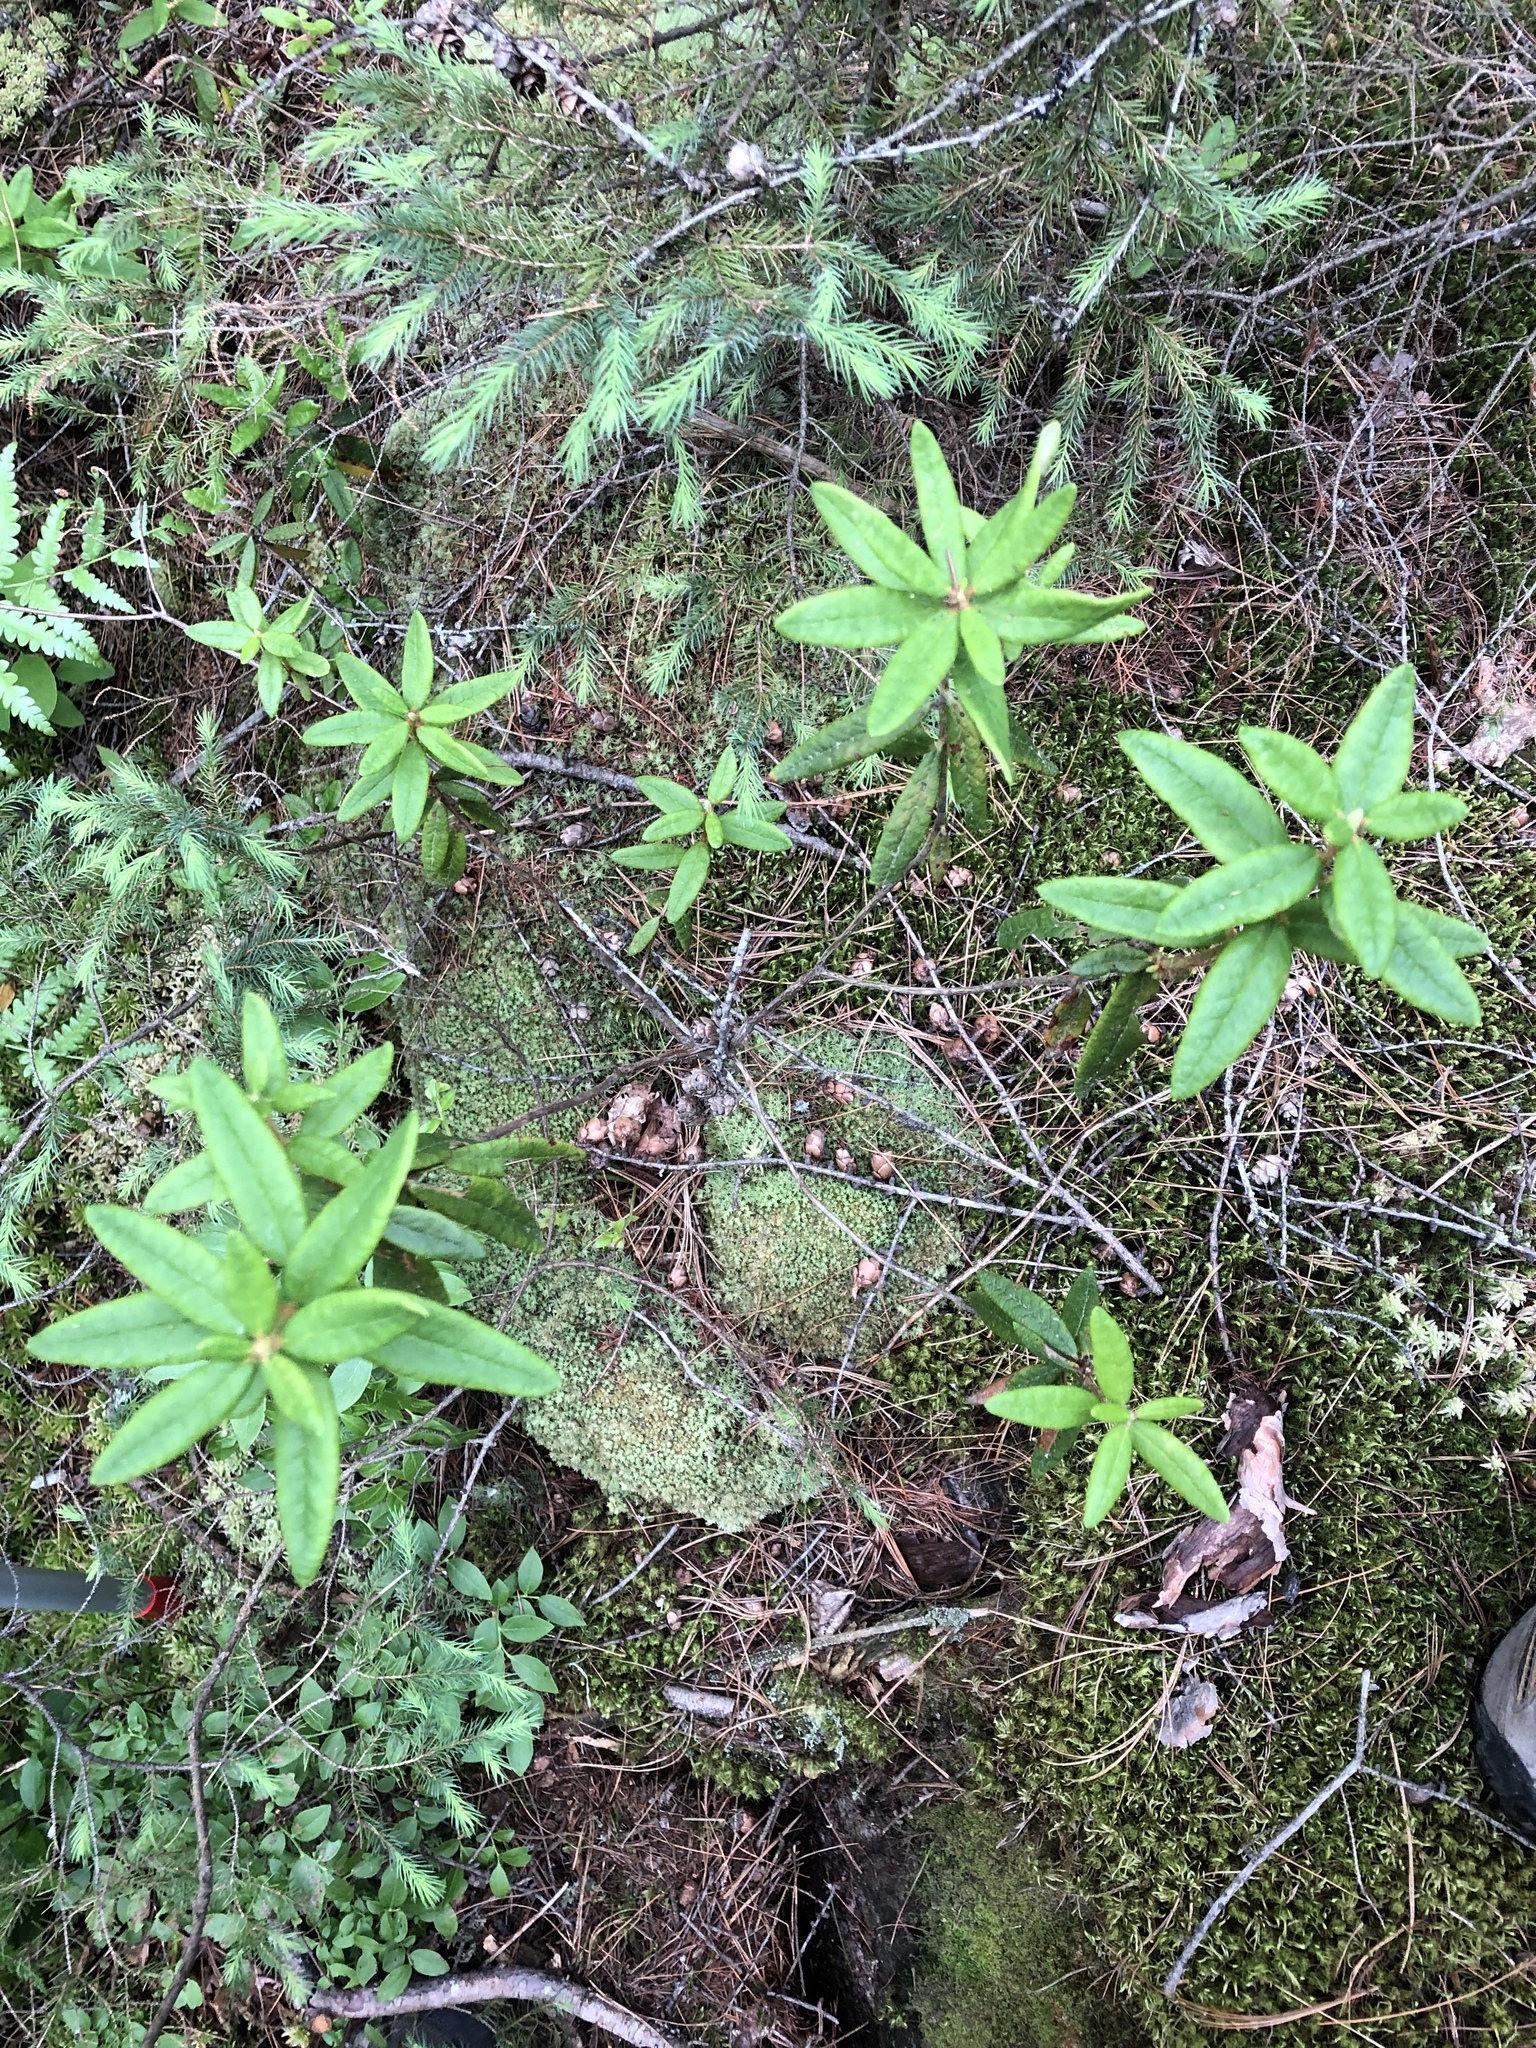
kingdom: Plantae
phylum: Tracheophyta
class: Magnoliopsida
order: Ericales
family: Ericaceae
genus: Rhododendron
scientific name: Rhododendron groenlandicum
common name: Bog labrador tea
